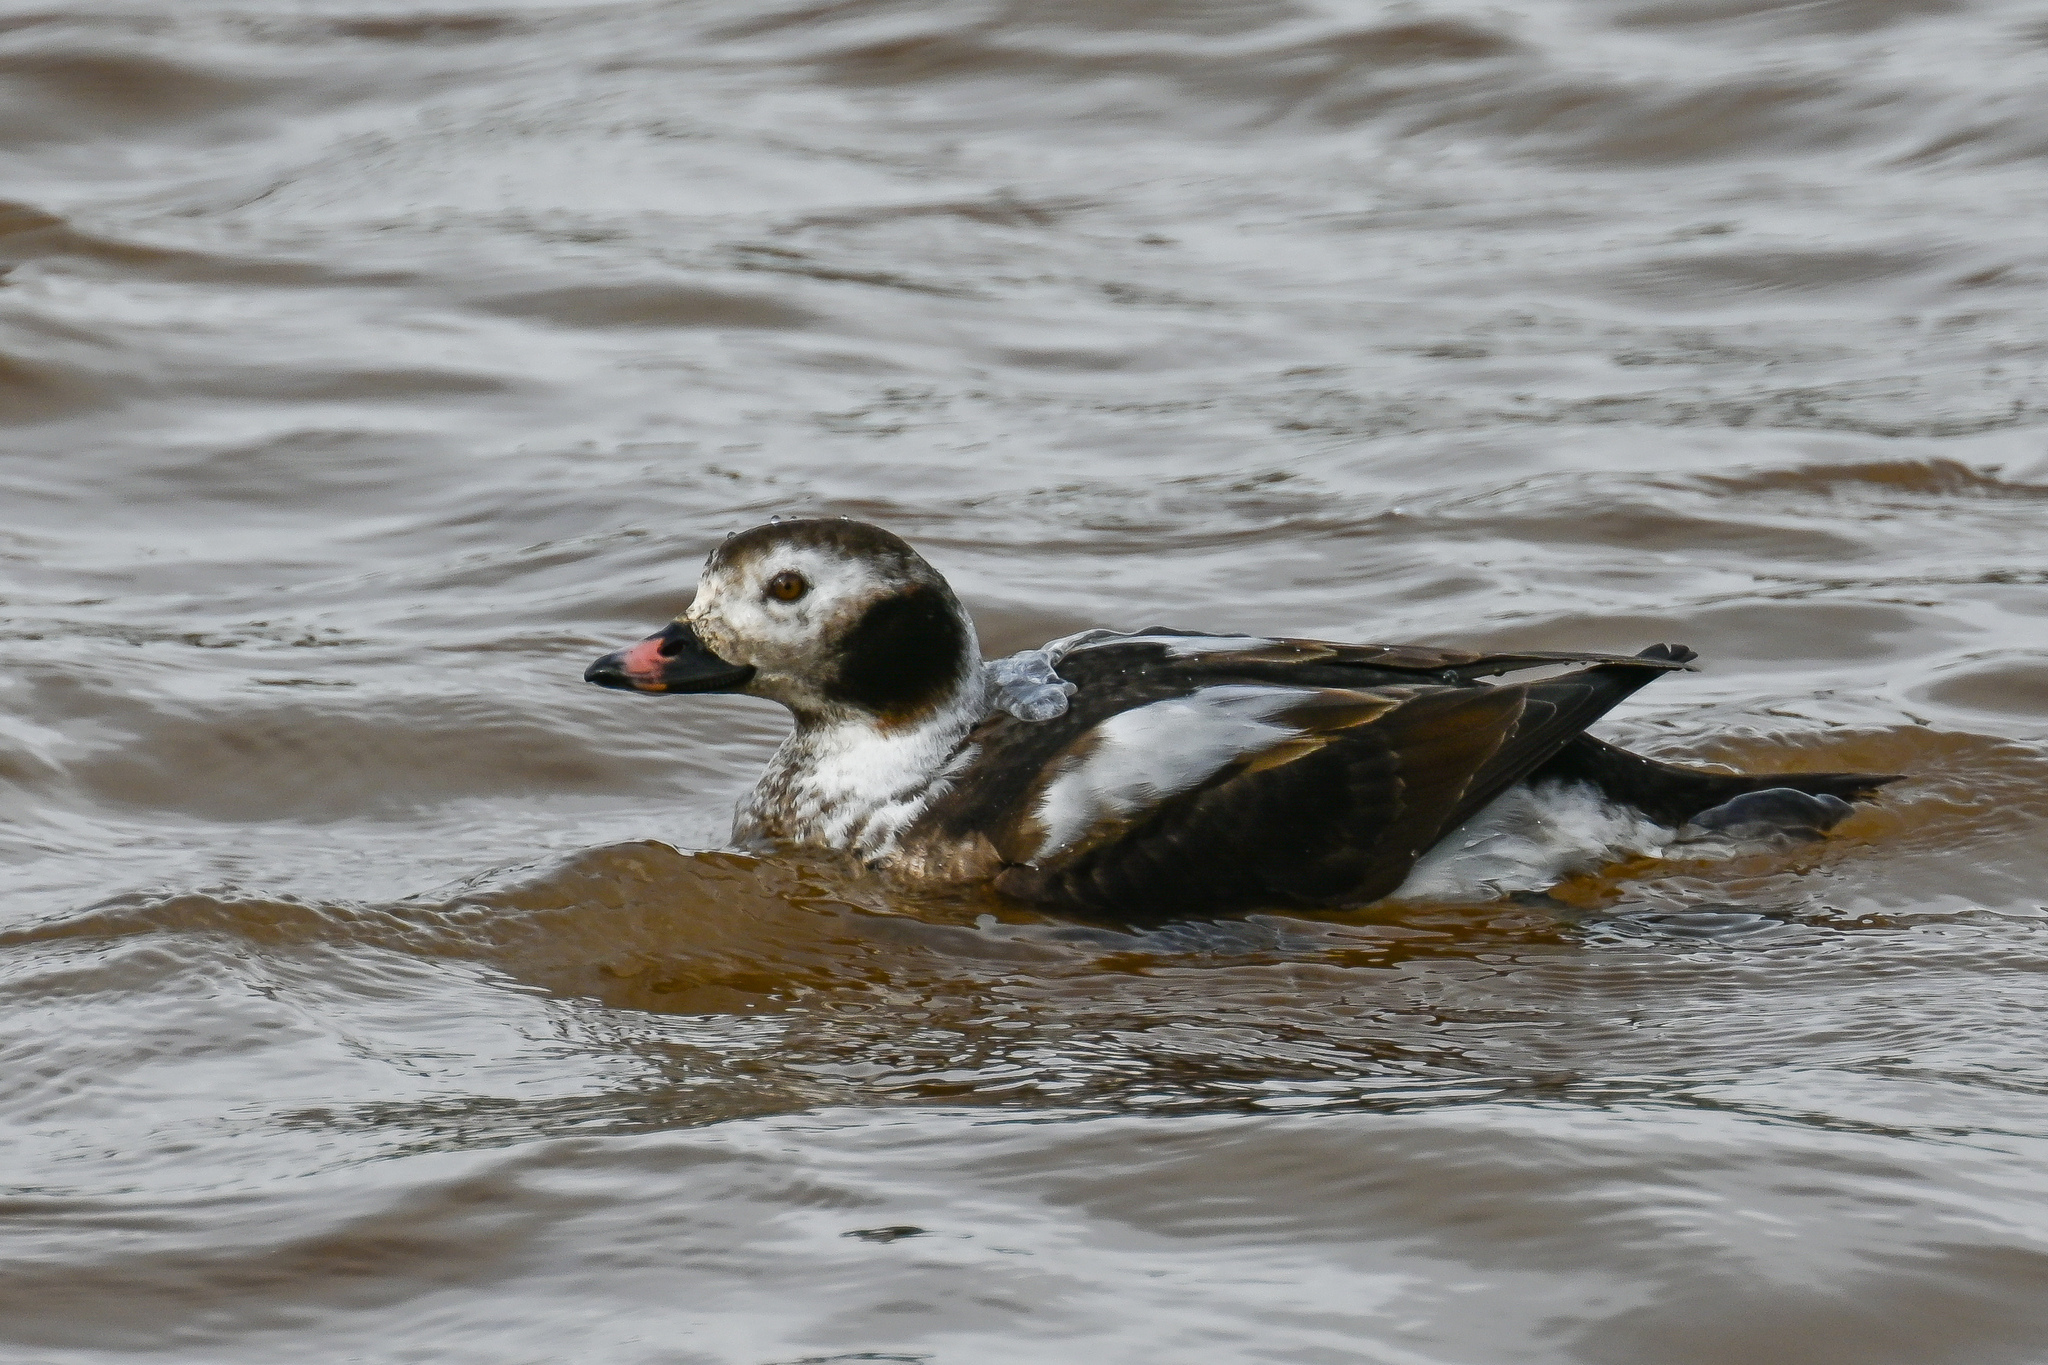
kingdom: Animalia
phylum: Chordata
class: Aves
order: Anseriformes
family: Anatidae
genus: Clangula
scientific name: Clangula hyemalis
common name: Long-tailed duck
